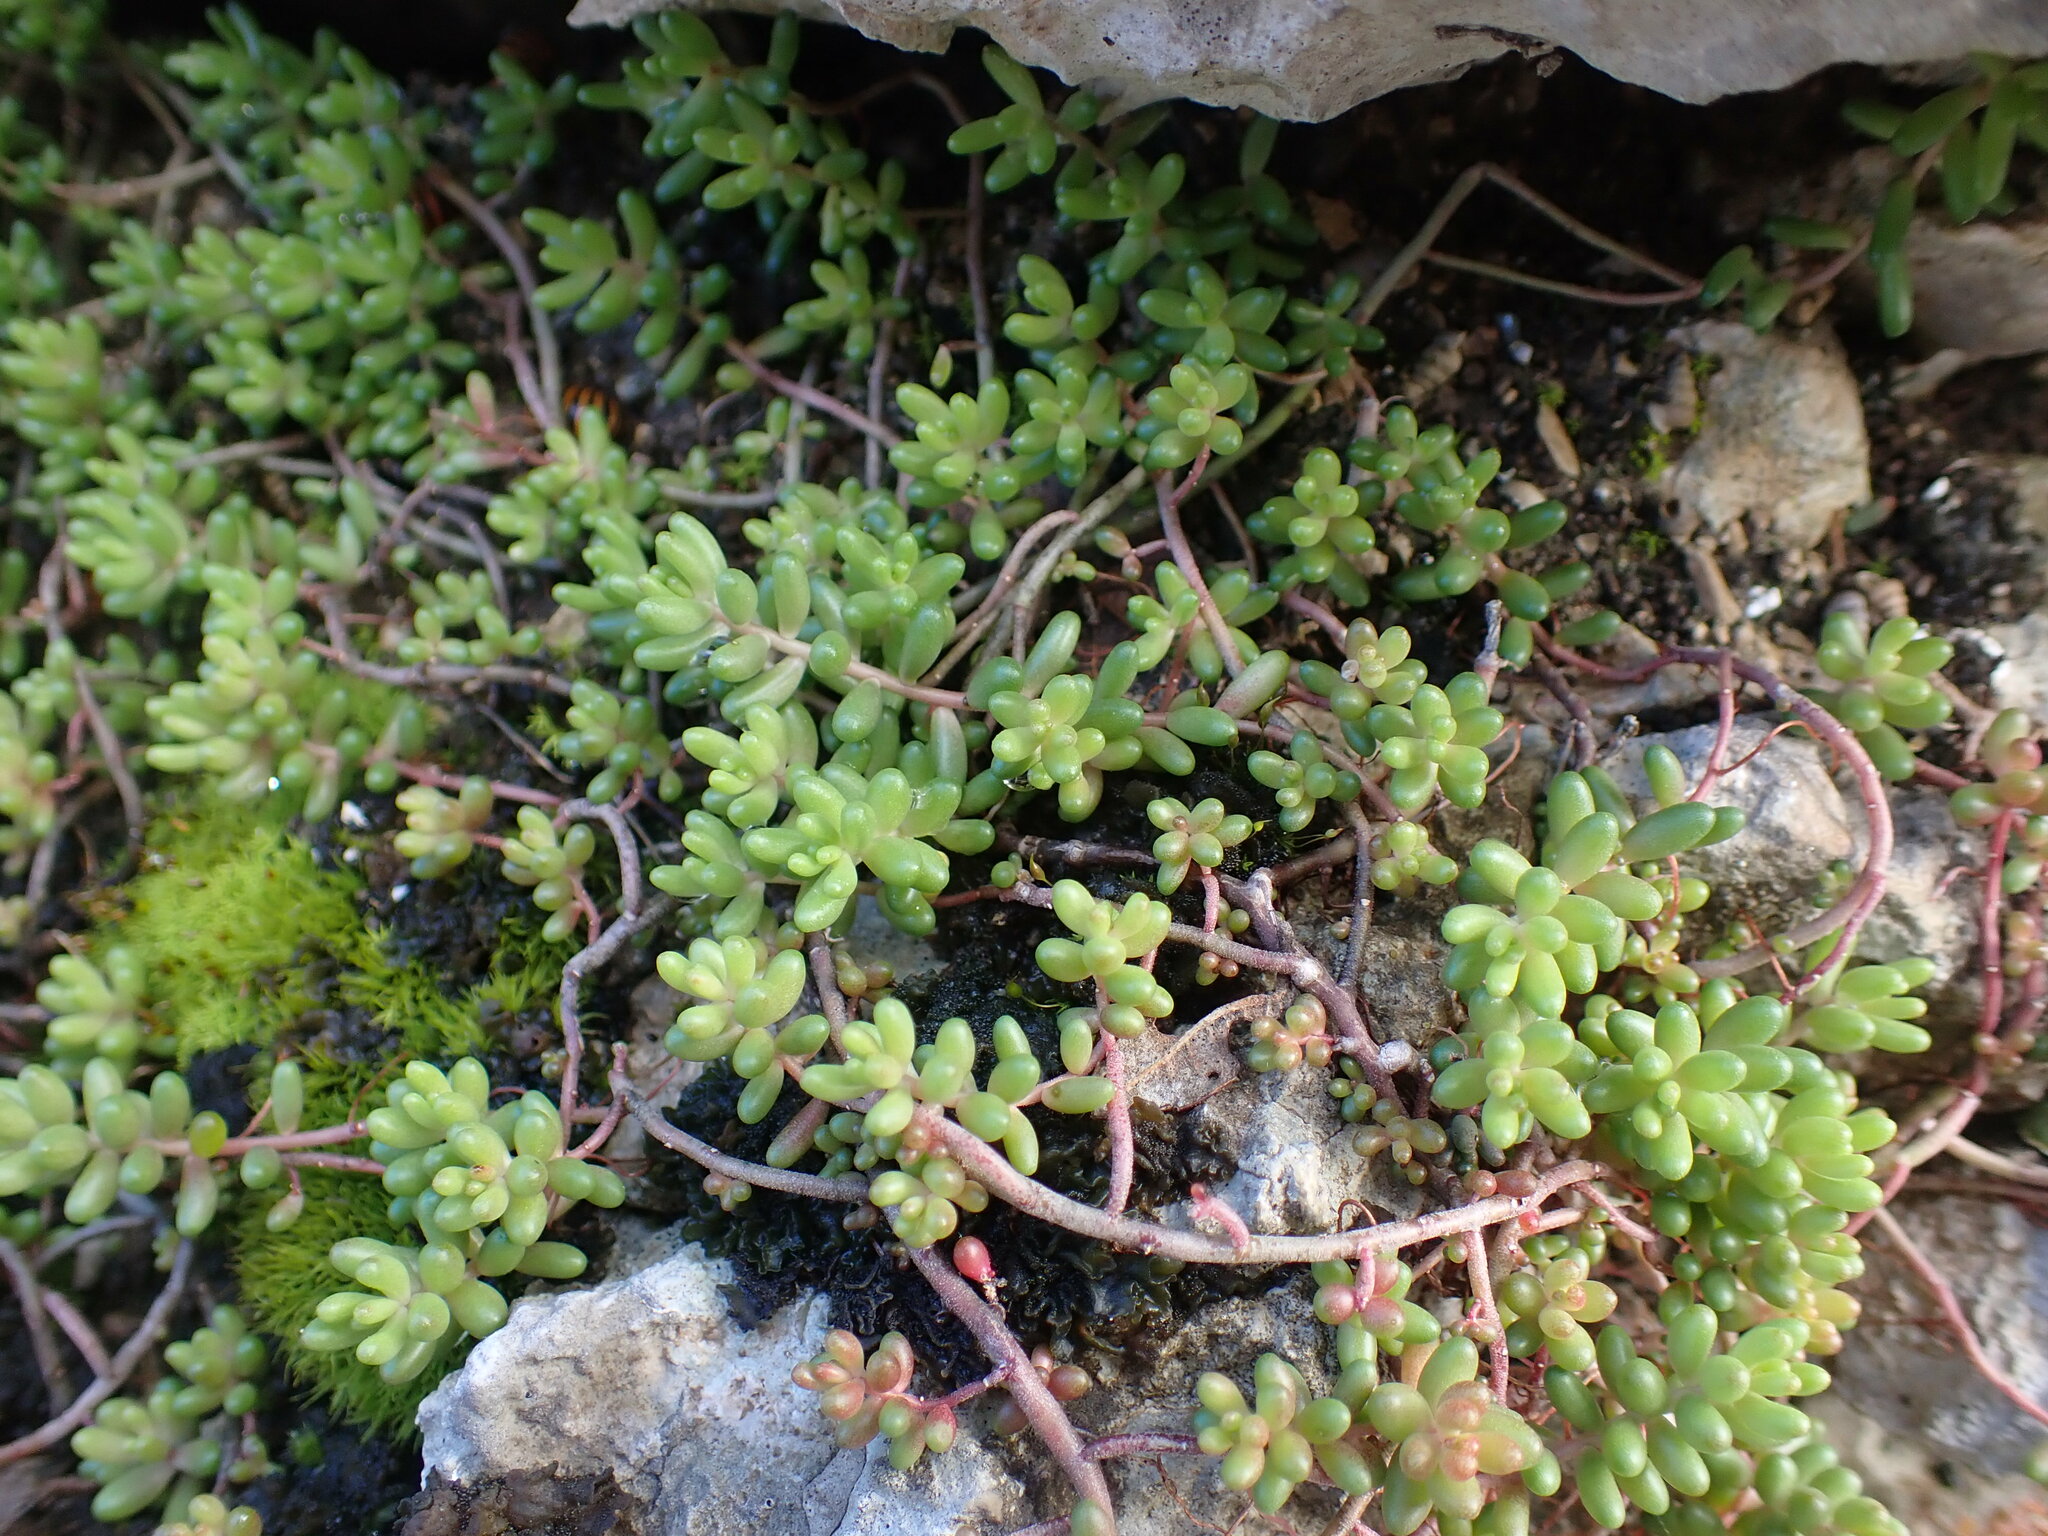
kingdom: Plantae
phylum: Tracheophyta
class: Magnoliopsida
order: Saxifragales
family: Crassulaceae
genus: Sedum
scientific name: Sedum album
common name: White stonecrop
